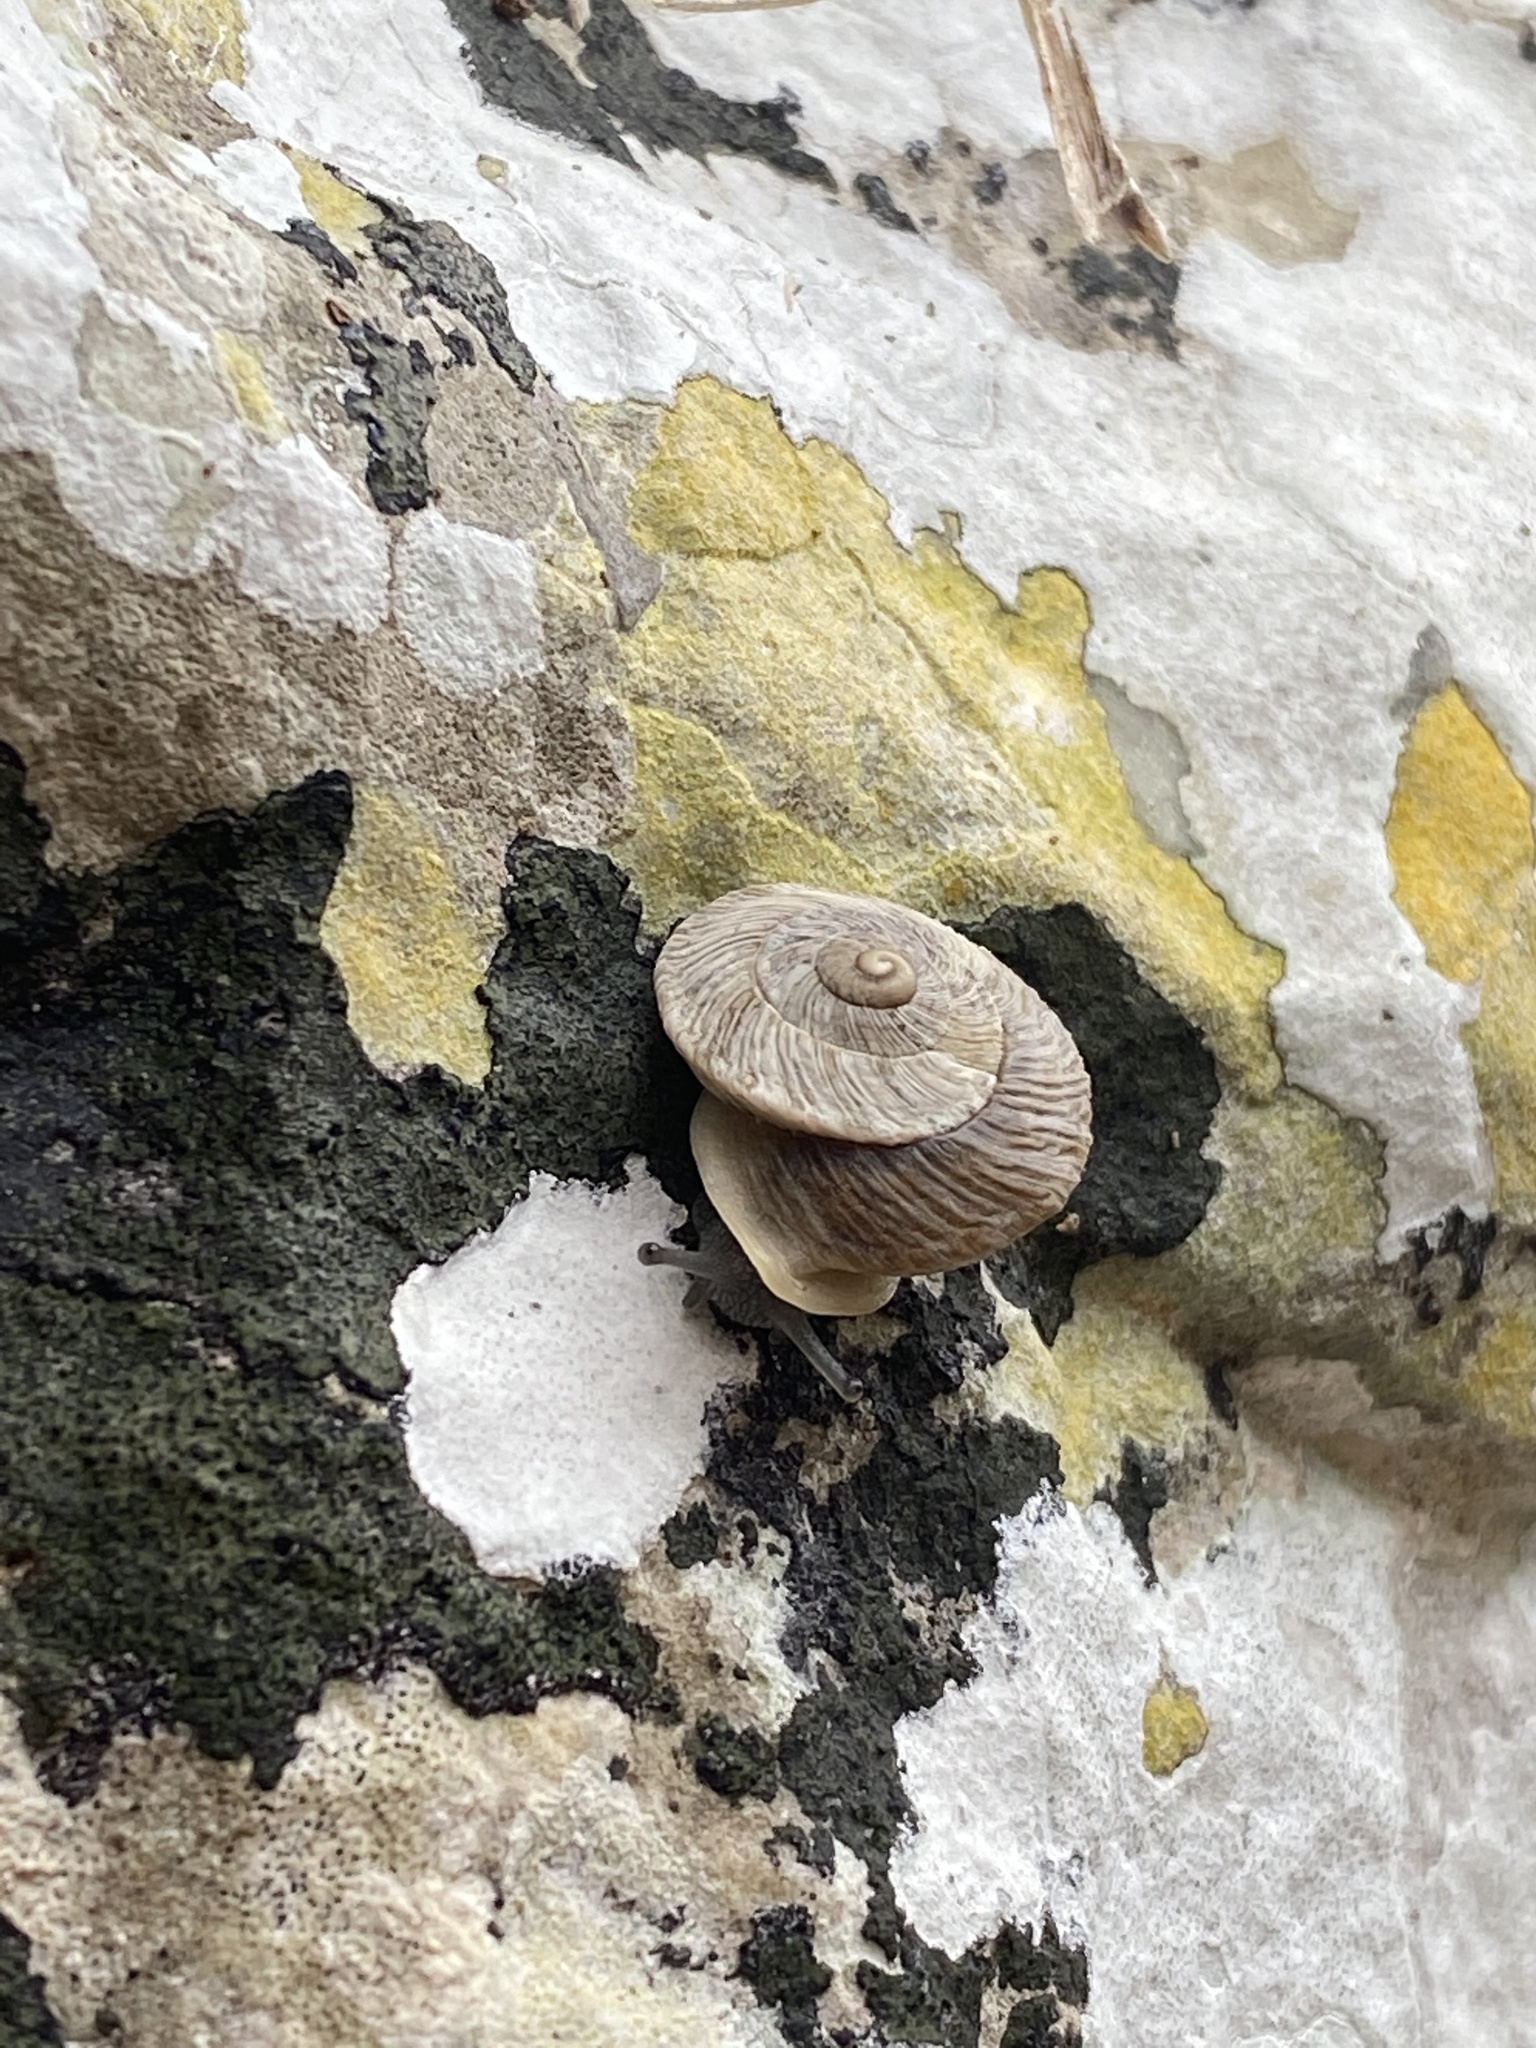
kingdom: Animalia
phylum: Mollusca
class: Gastropoda
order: Stylommatophora
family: Helicidae
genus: Marmorana
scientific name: Marmorana scabriuscula
